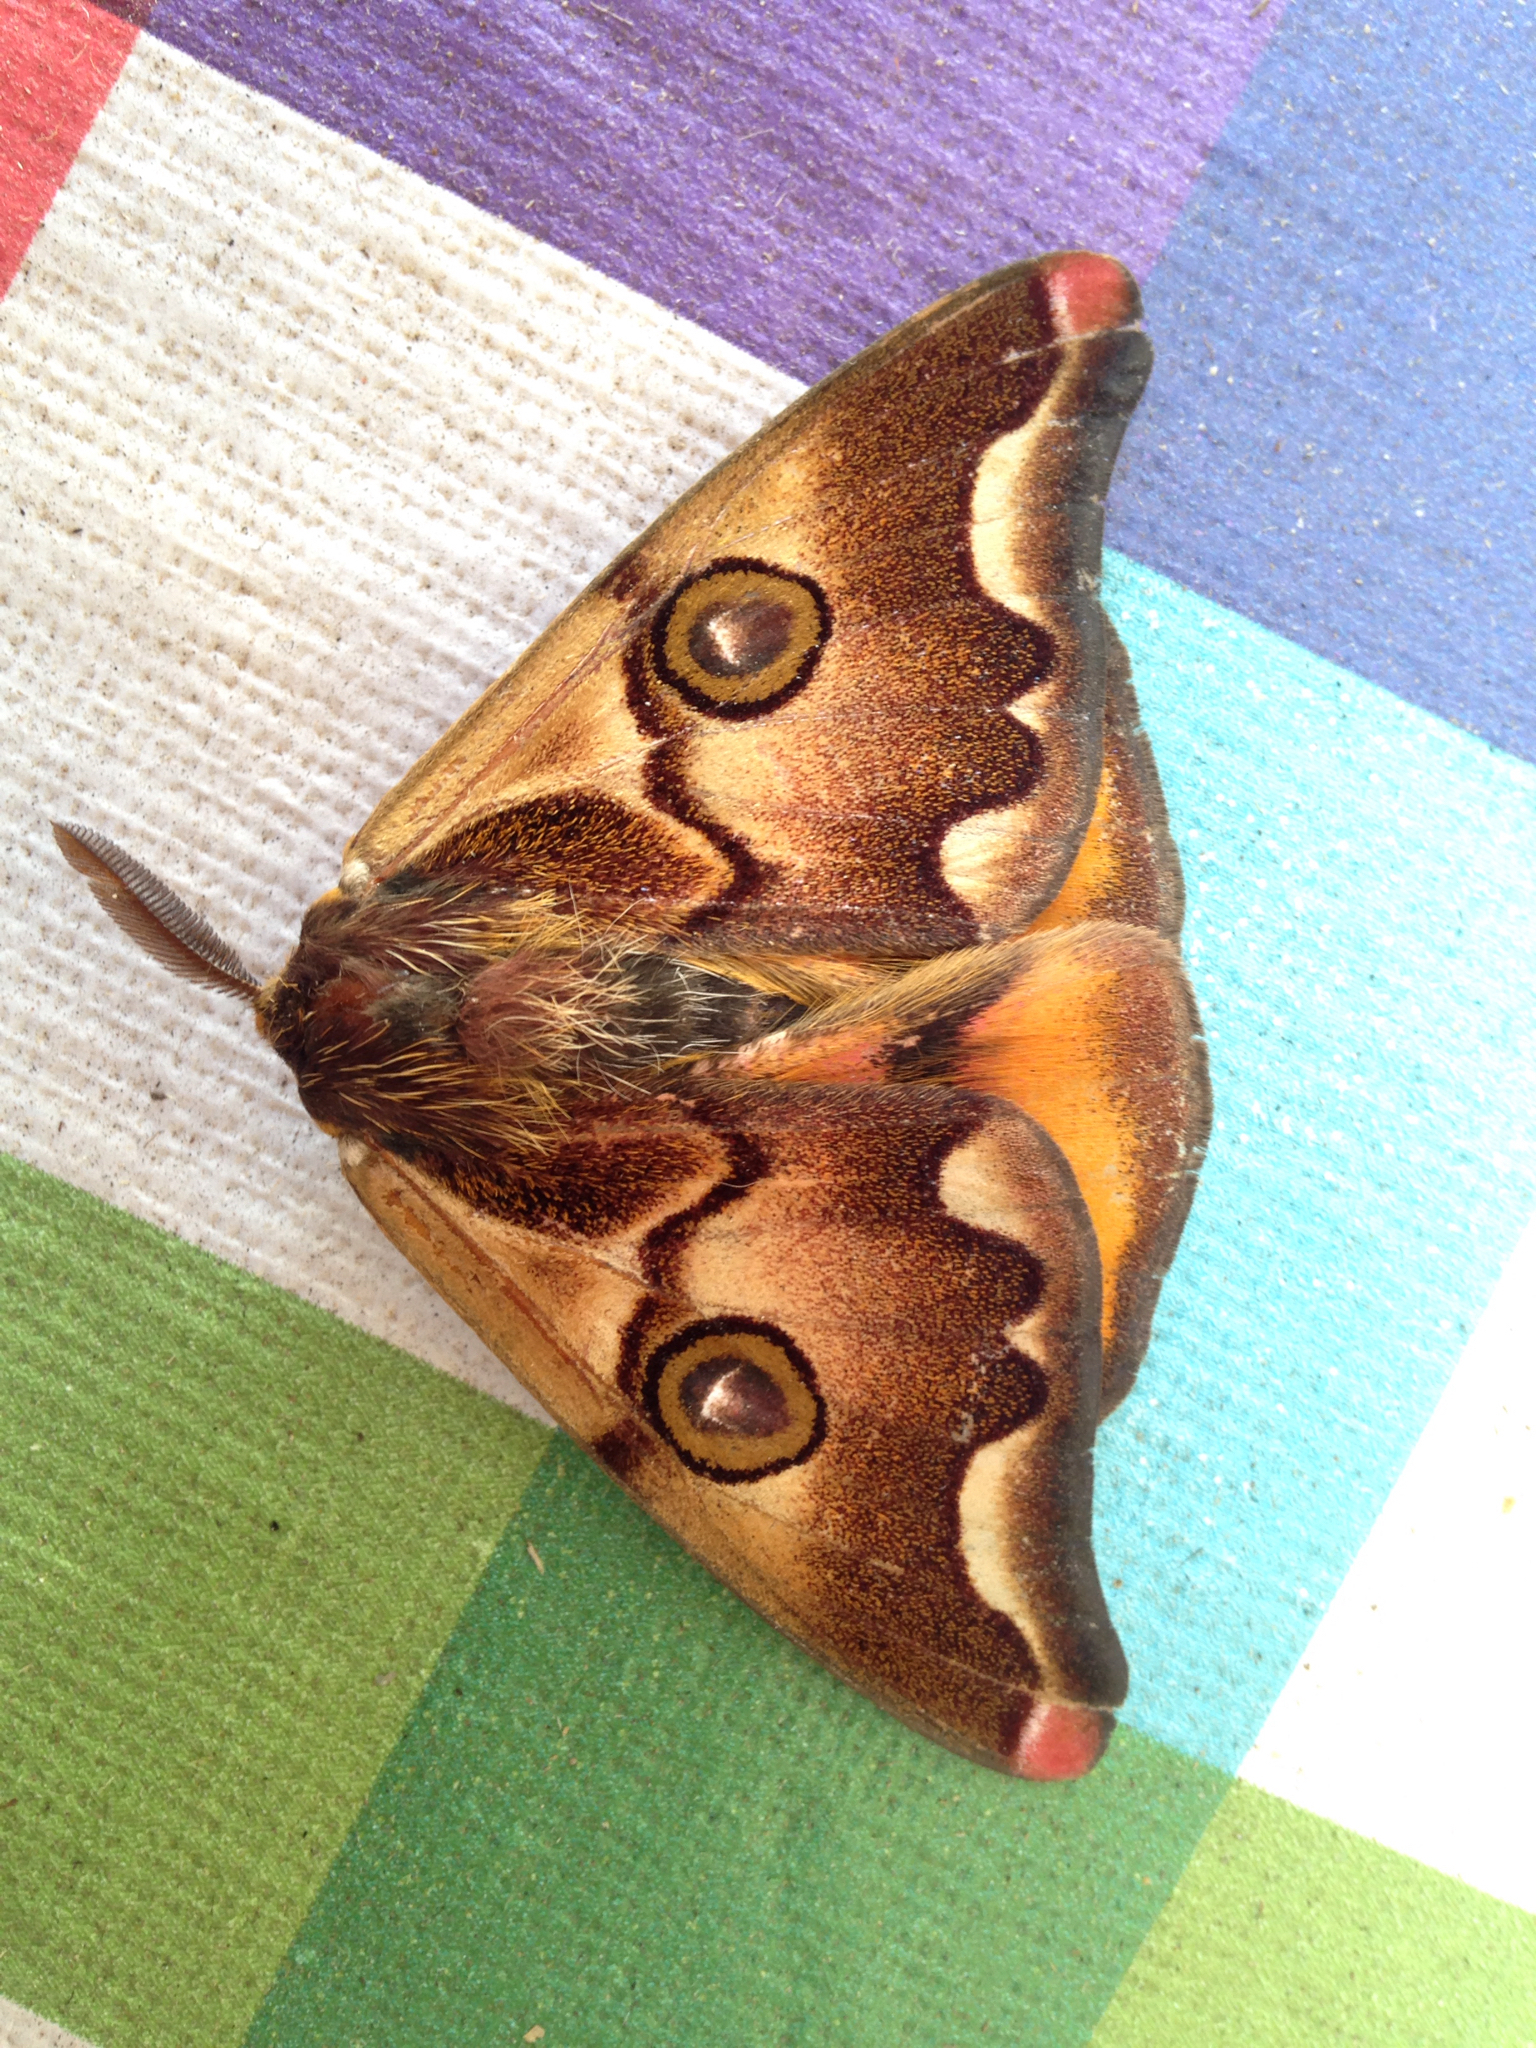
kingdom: Animalia
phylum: Arthropoda
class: Insecta
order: Lepidoptera
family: Saturniidae
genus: Polythysana
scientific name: Polythysana cinerascens
